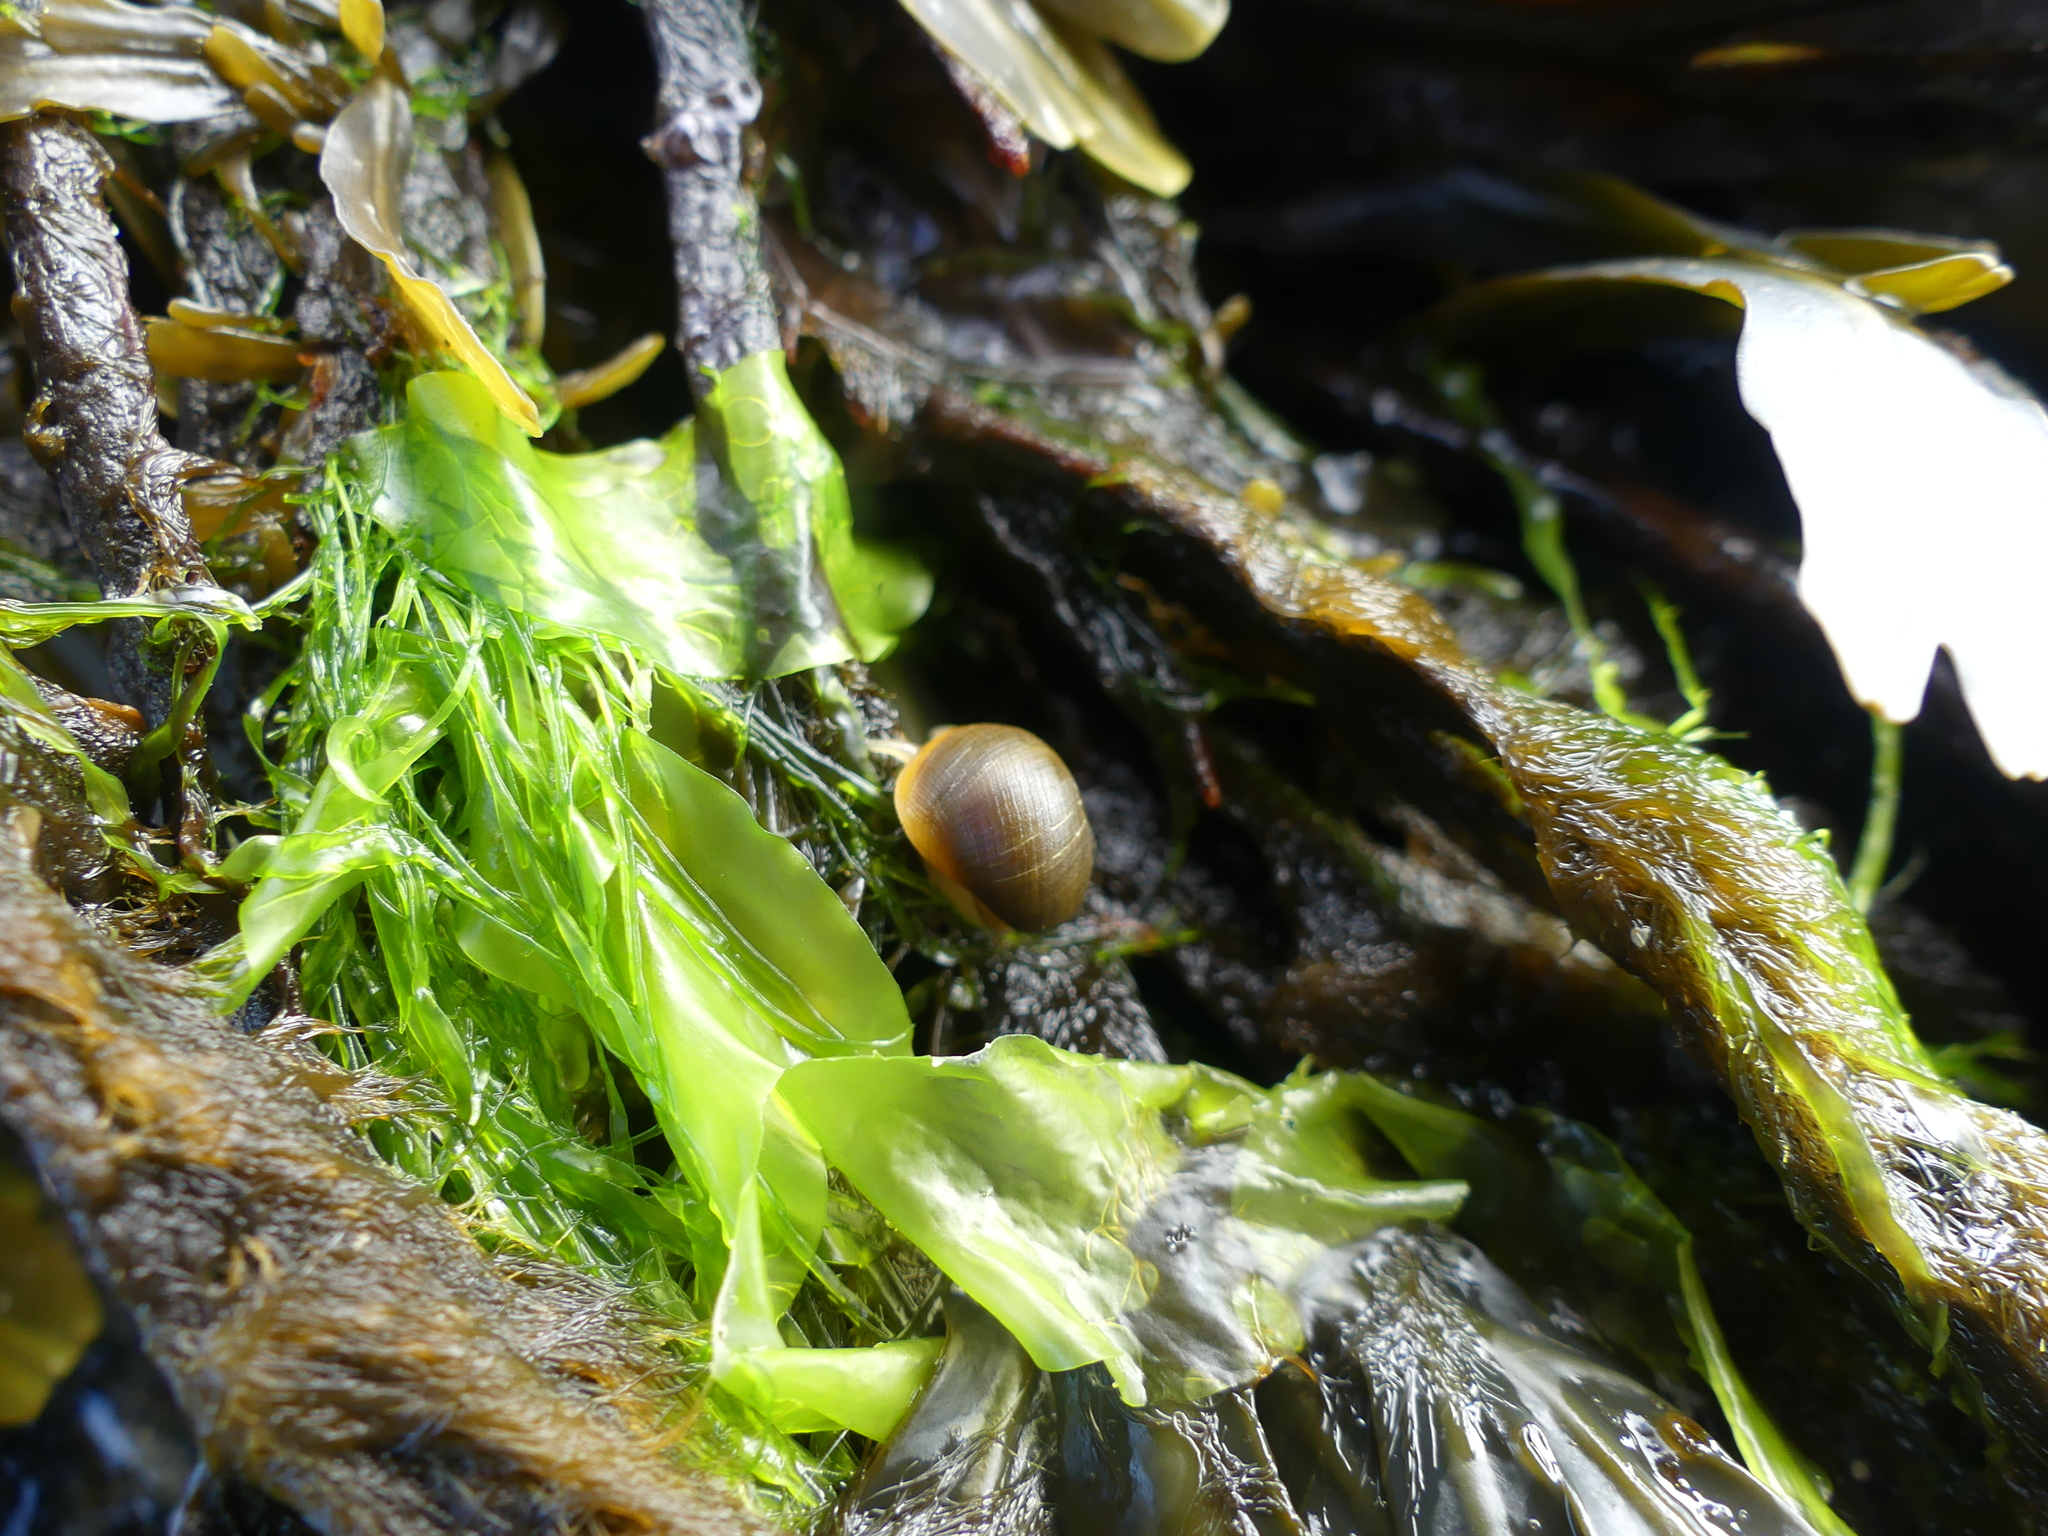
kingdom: Animalia
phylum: Mollusca
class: Gastropoda
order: Littorinimorpha
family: Littorinidae
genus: Littorina
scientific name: Littorina obtusata
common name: Flat periwinkle
